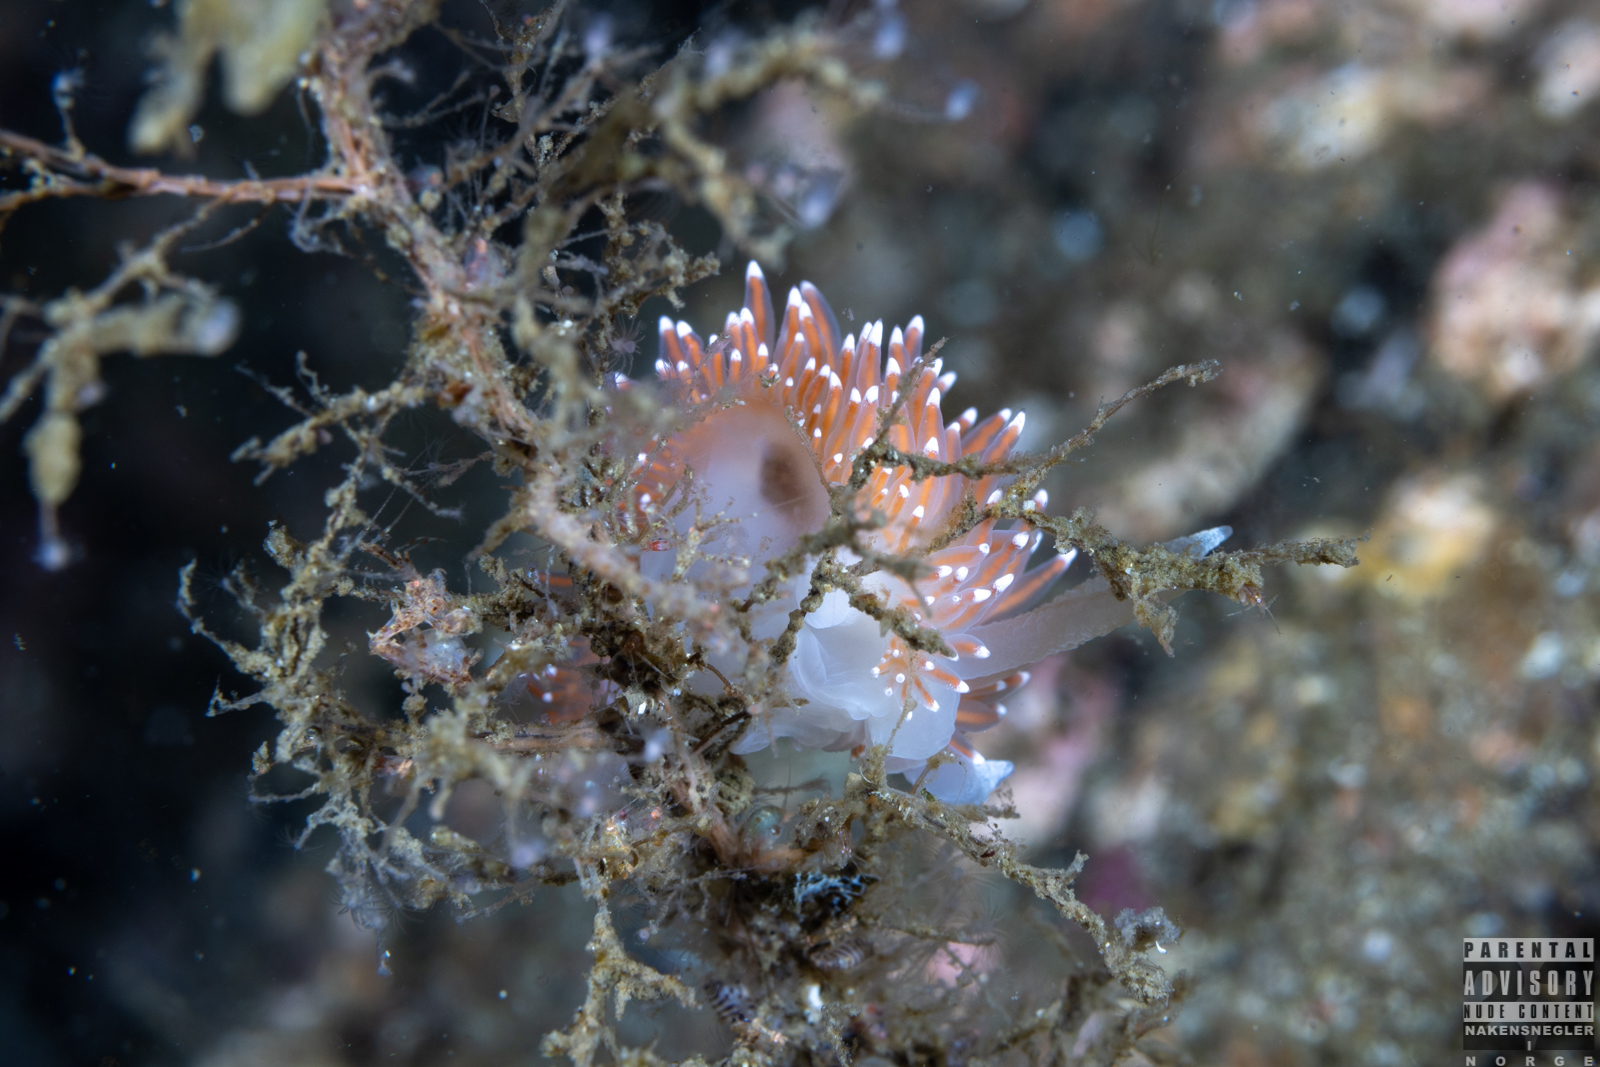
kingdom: Animalia
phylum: Mollusca
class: Gastropoda
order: Nudibranchia
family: Coryphellidae
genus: Coryphella
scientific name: Coryphella nobilis
